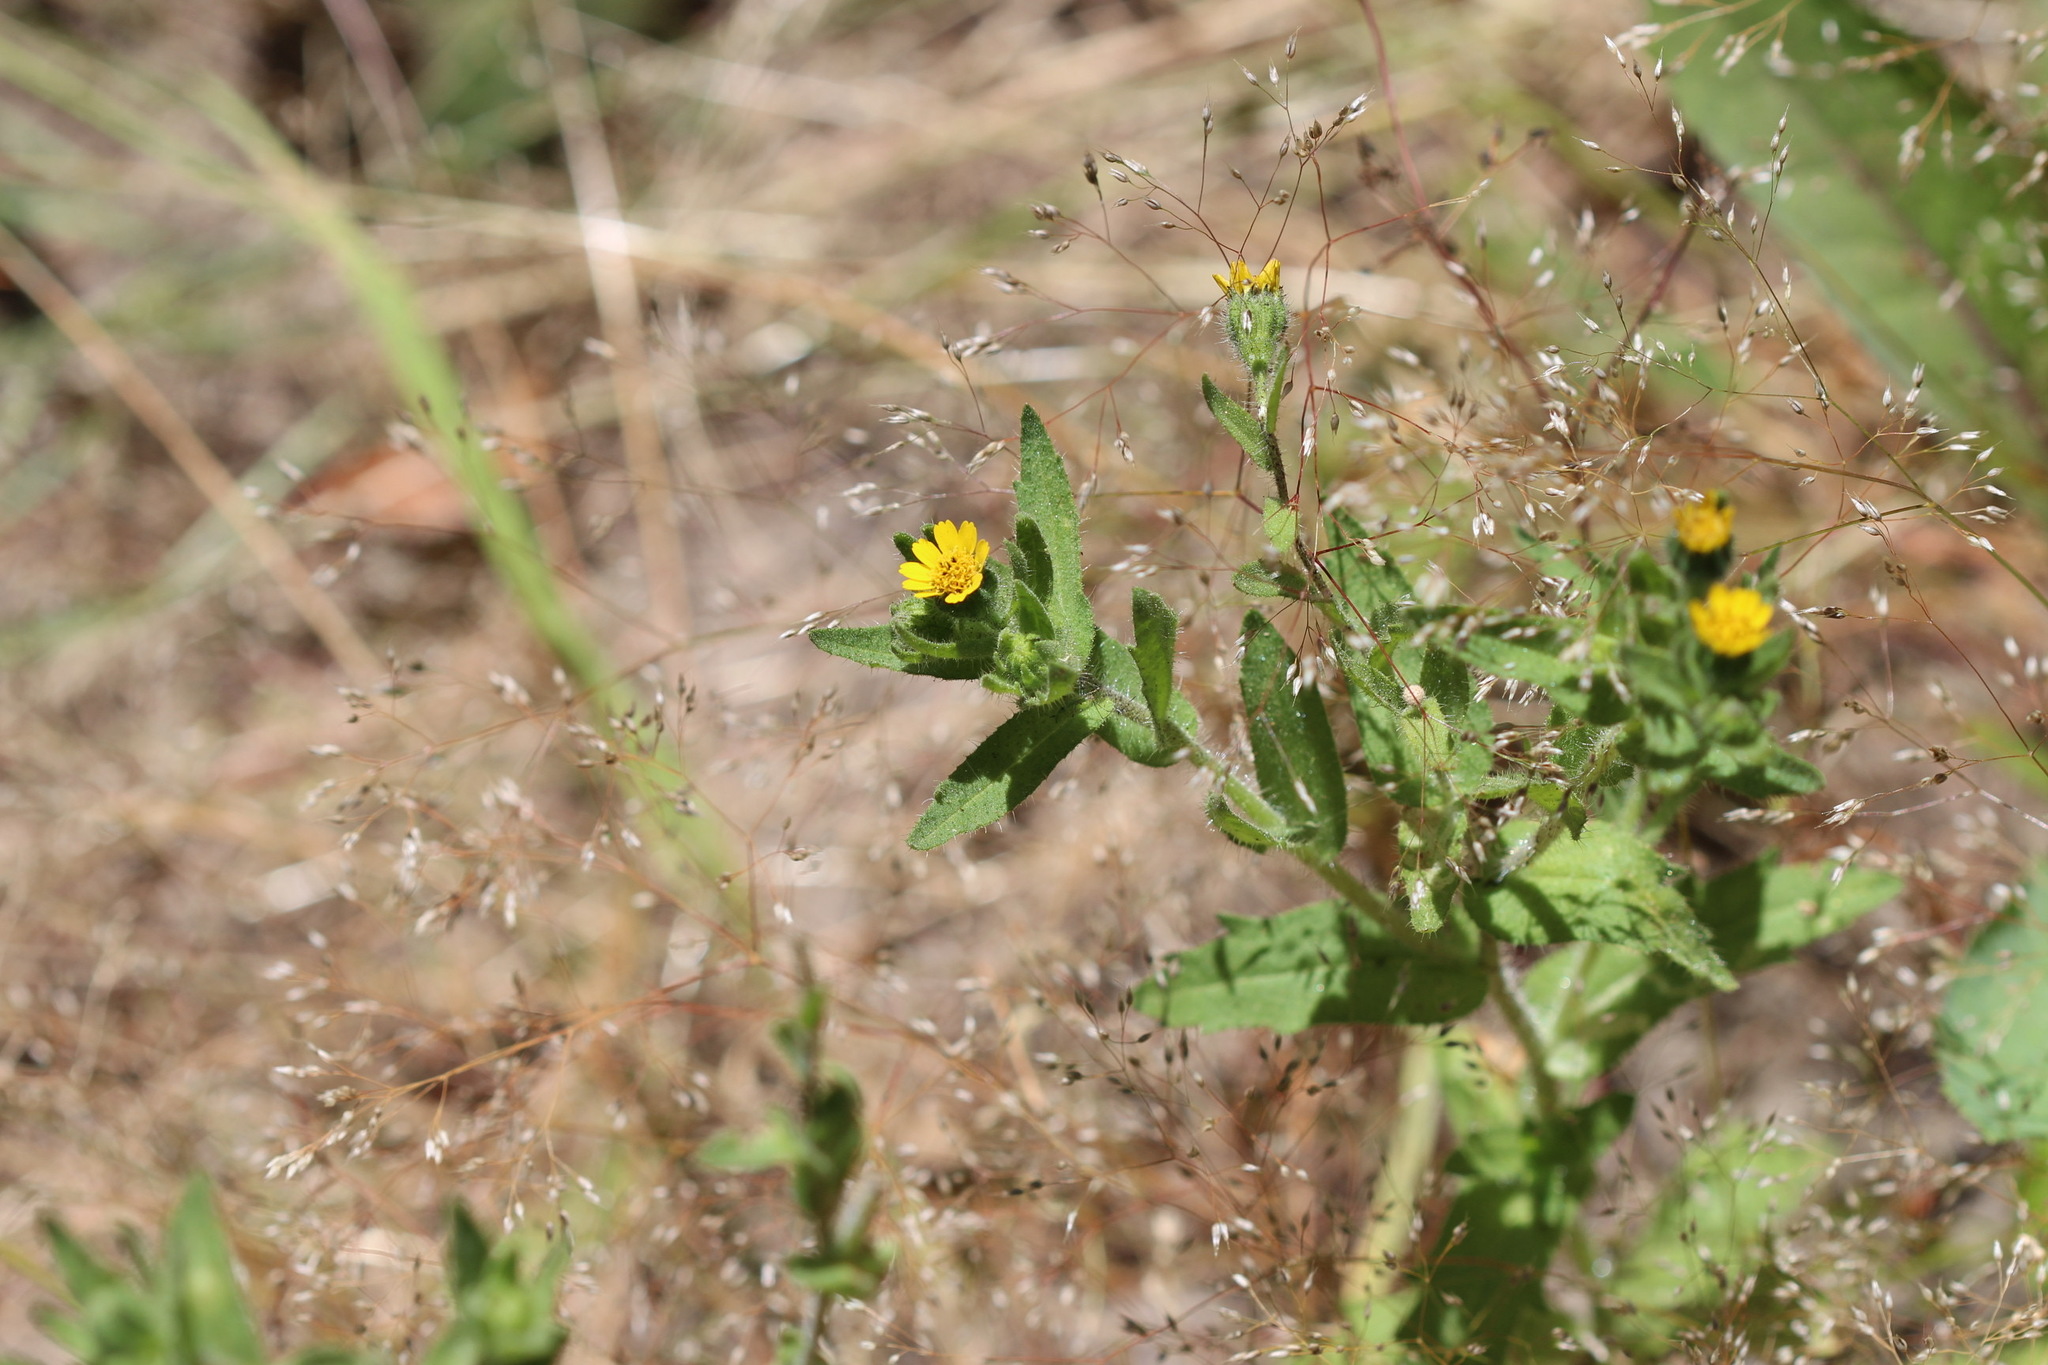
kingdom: Plantae
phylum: Tracheophyta
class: Magnoliopsida
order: Asterales
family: Asteraceae
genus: Layia
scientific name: Layia hieracioides
